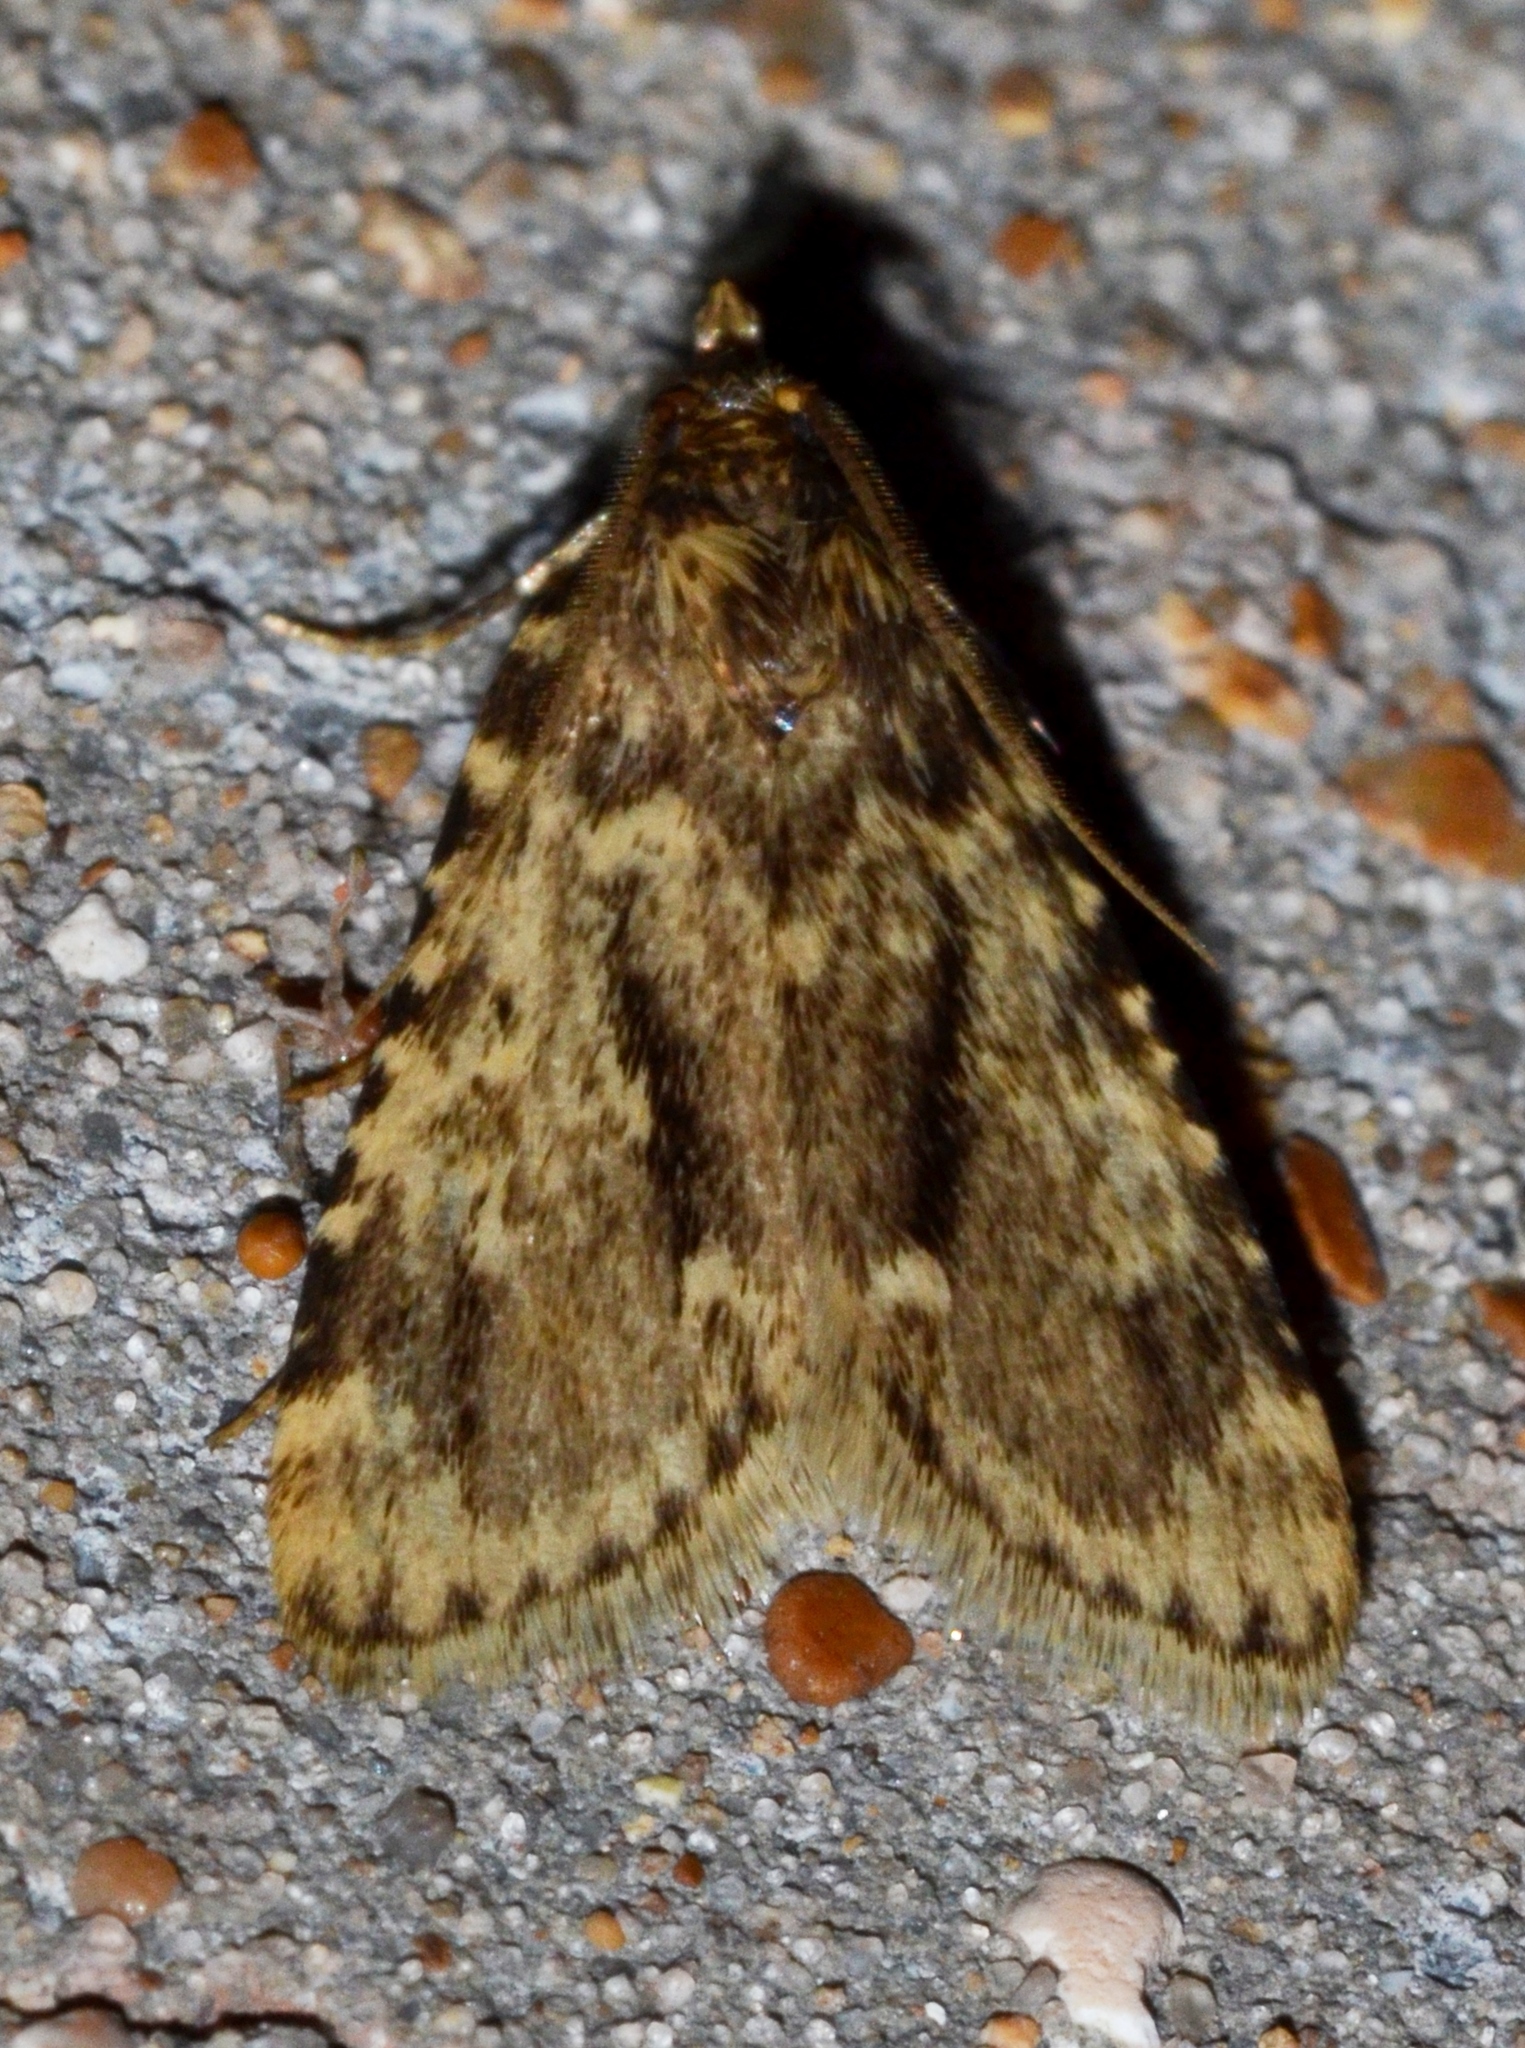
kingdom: Animalia
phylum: Arthropoda
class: Insecta
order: Lepidoptera
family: Pyralidae
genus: Aglossa
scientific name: Aglossa caprealis
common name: Small tabby
